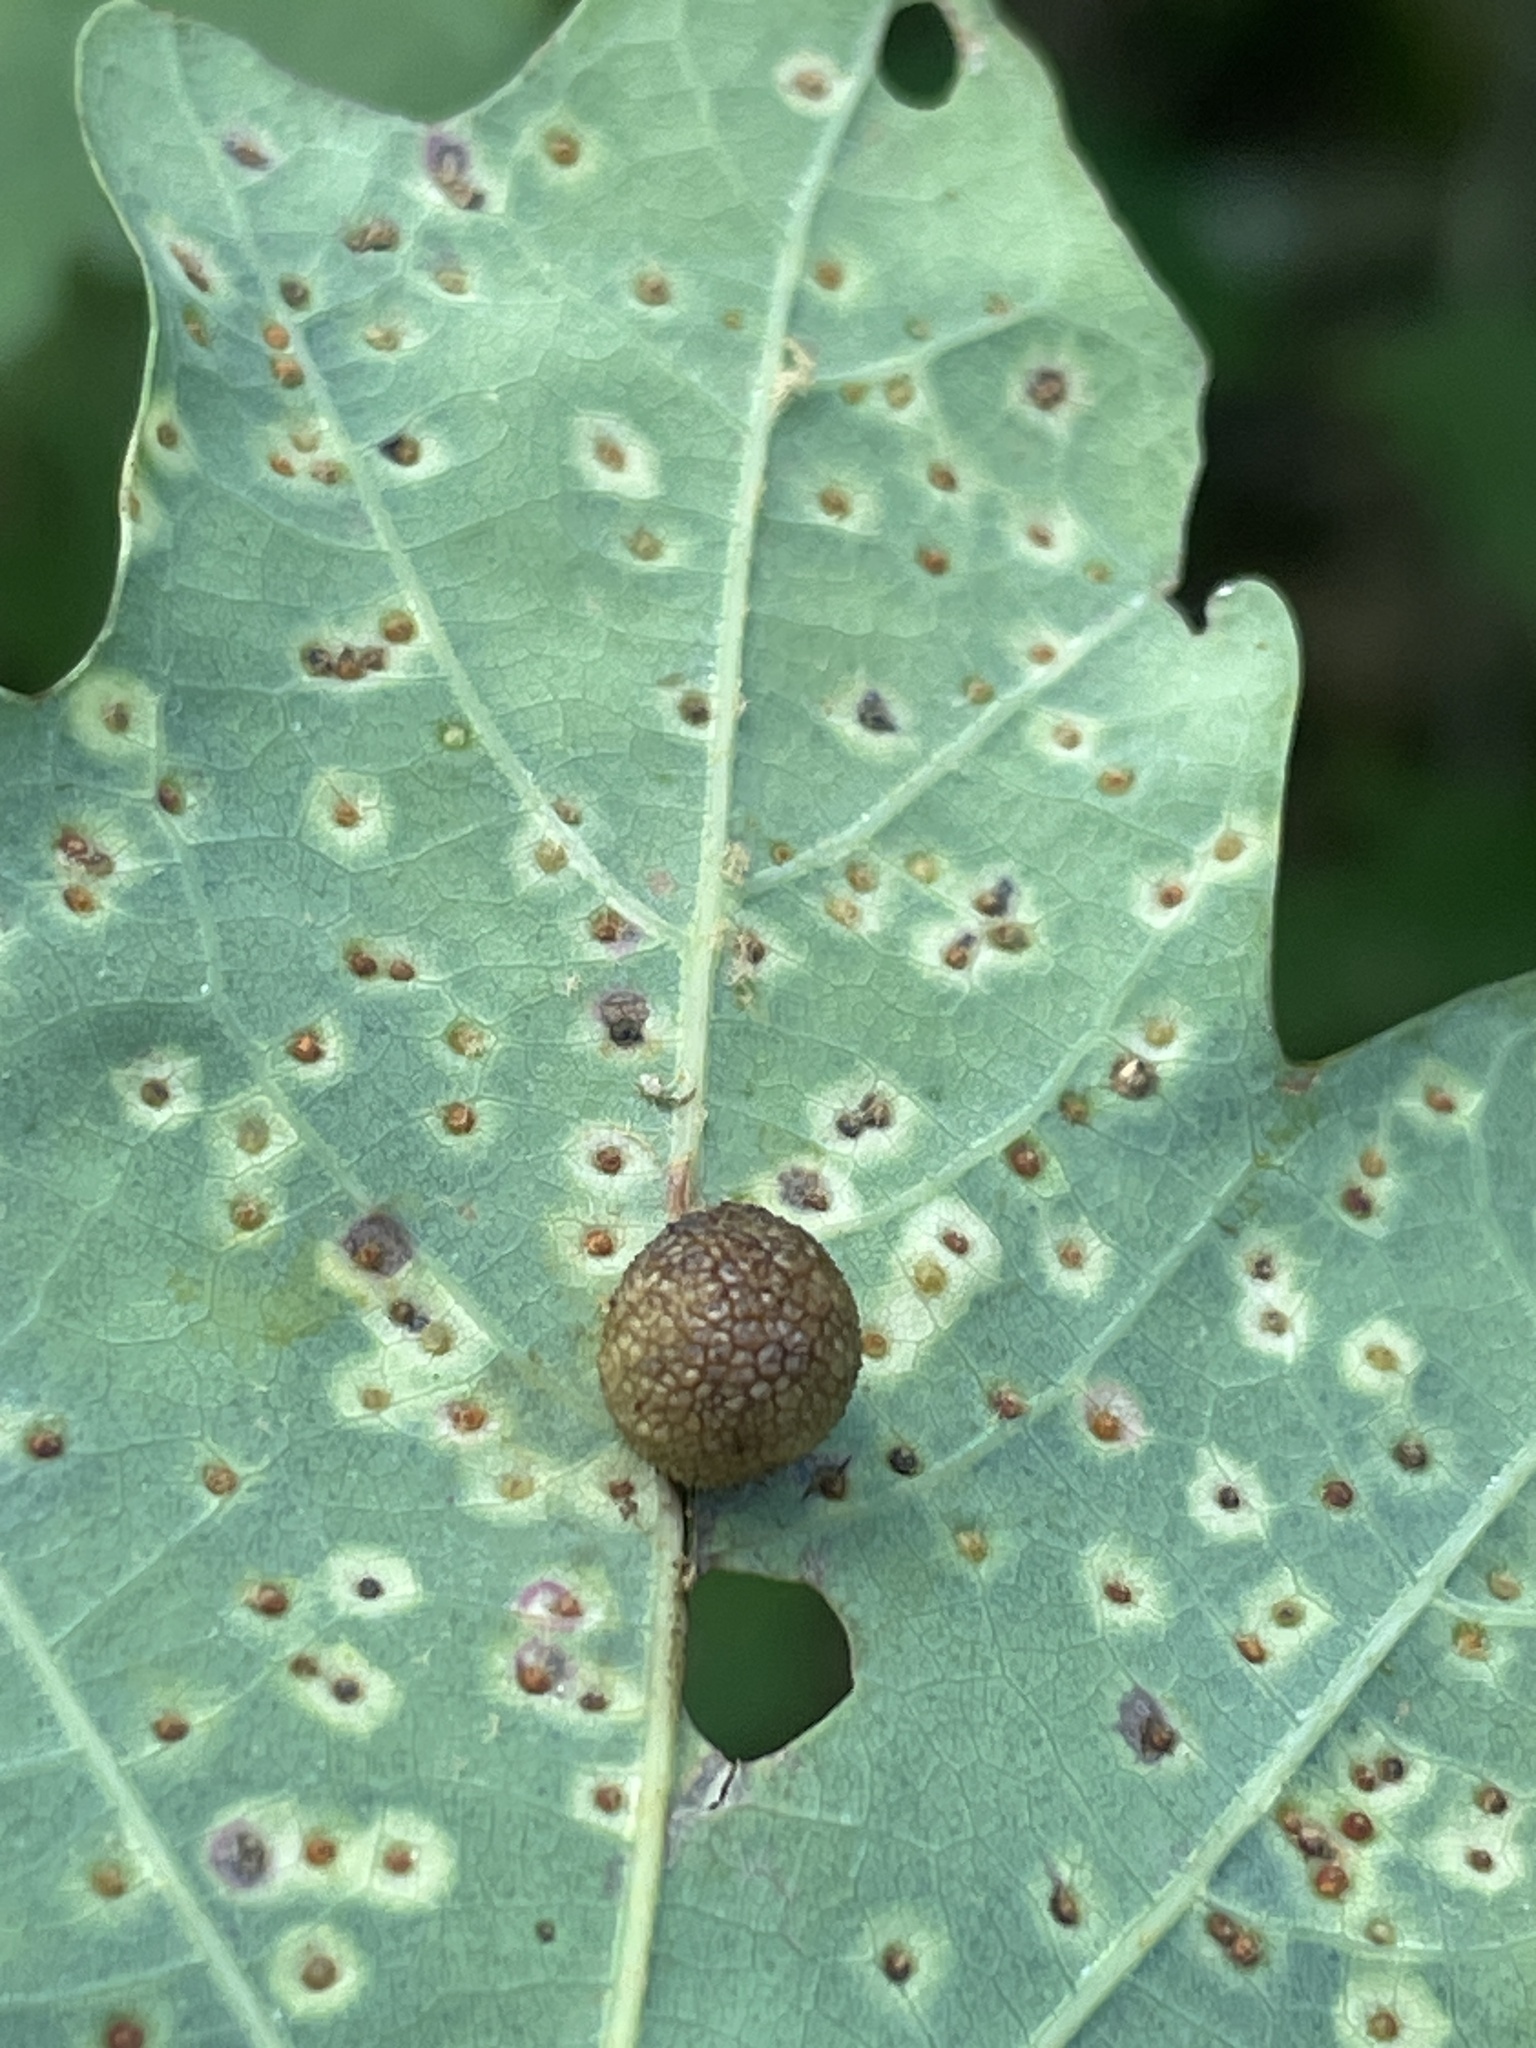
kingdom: Animalia
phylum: Arthropoda
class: Insecta
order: Hymenoptera
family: Cynipidae
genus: Acraspis
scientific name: Acraspis
